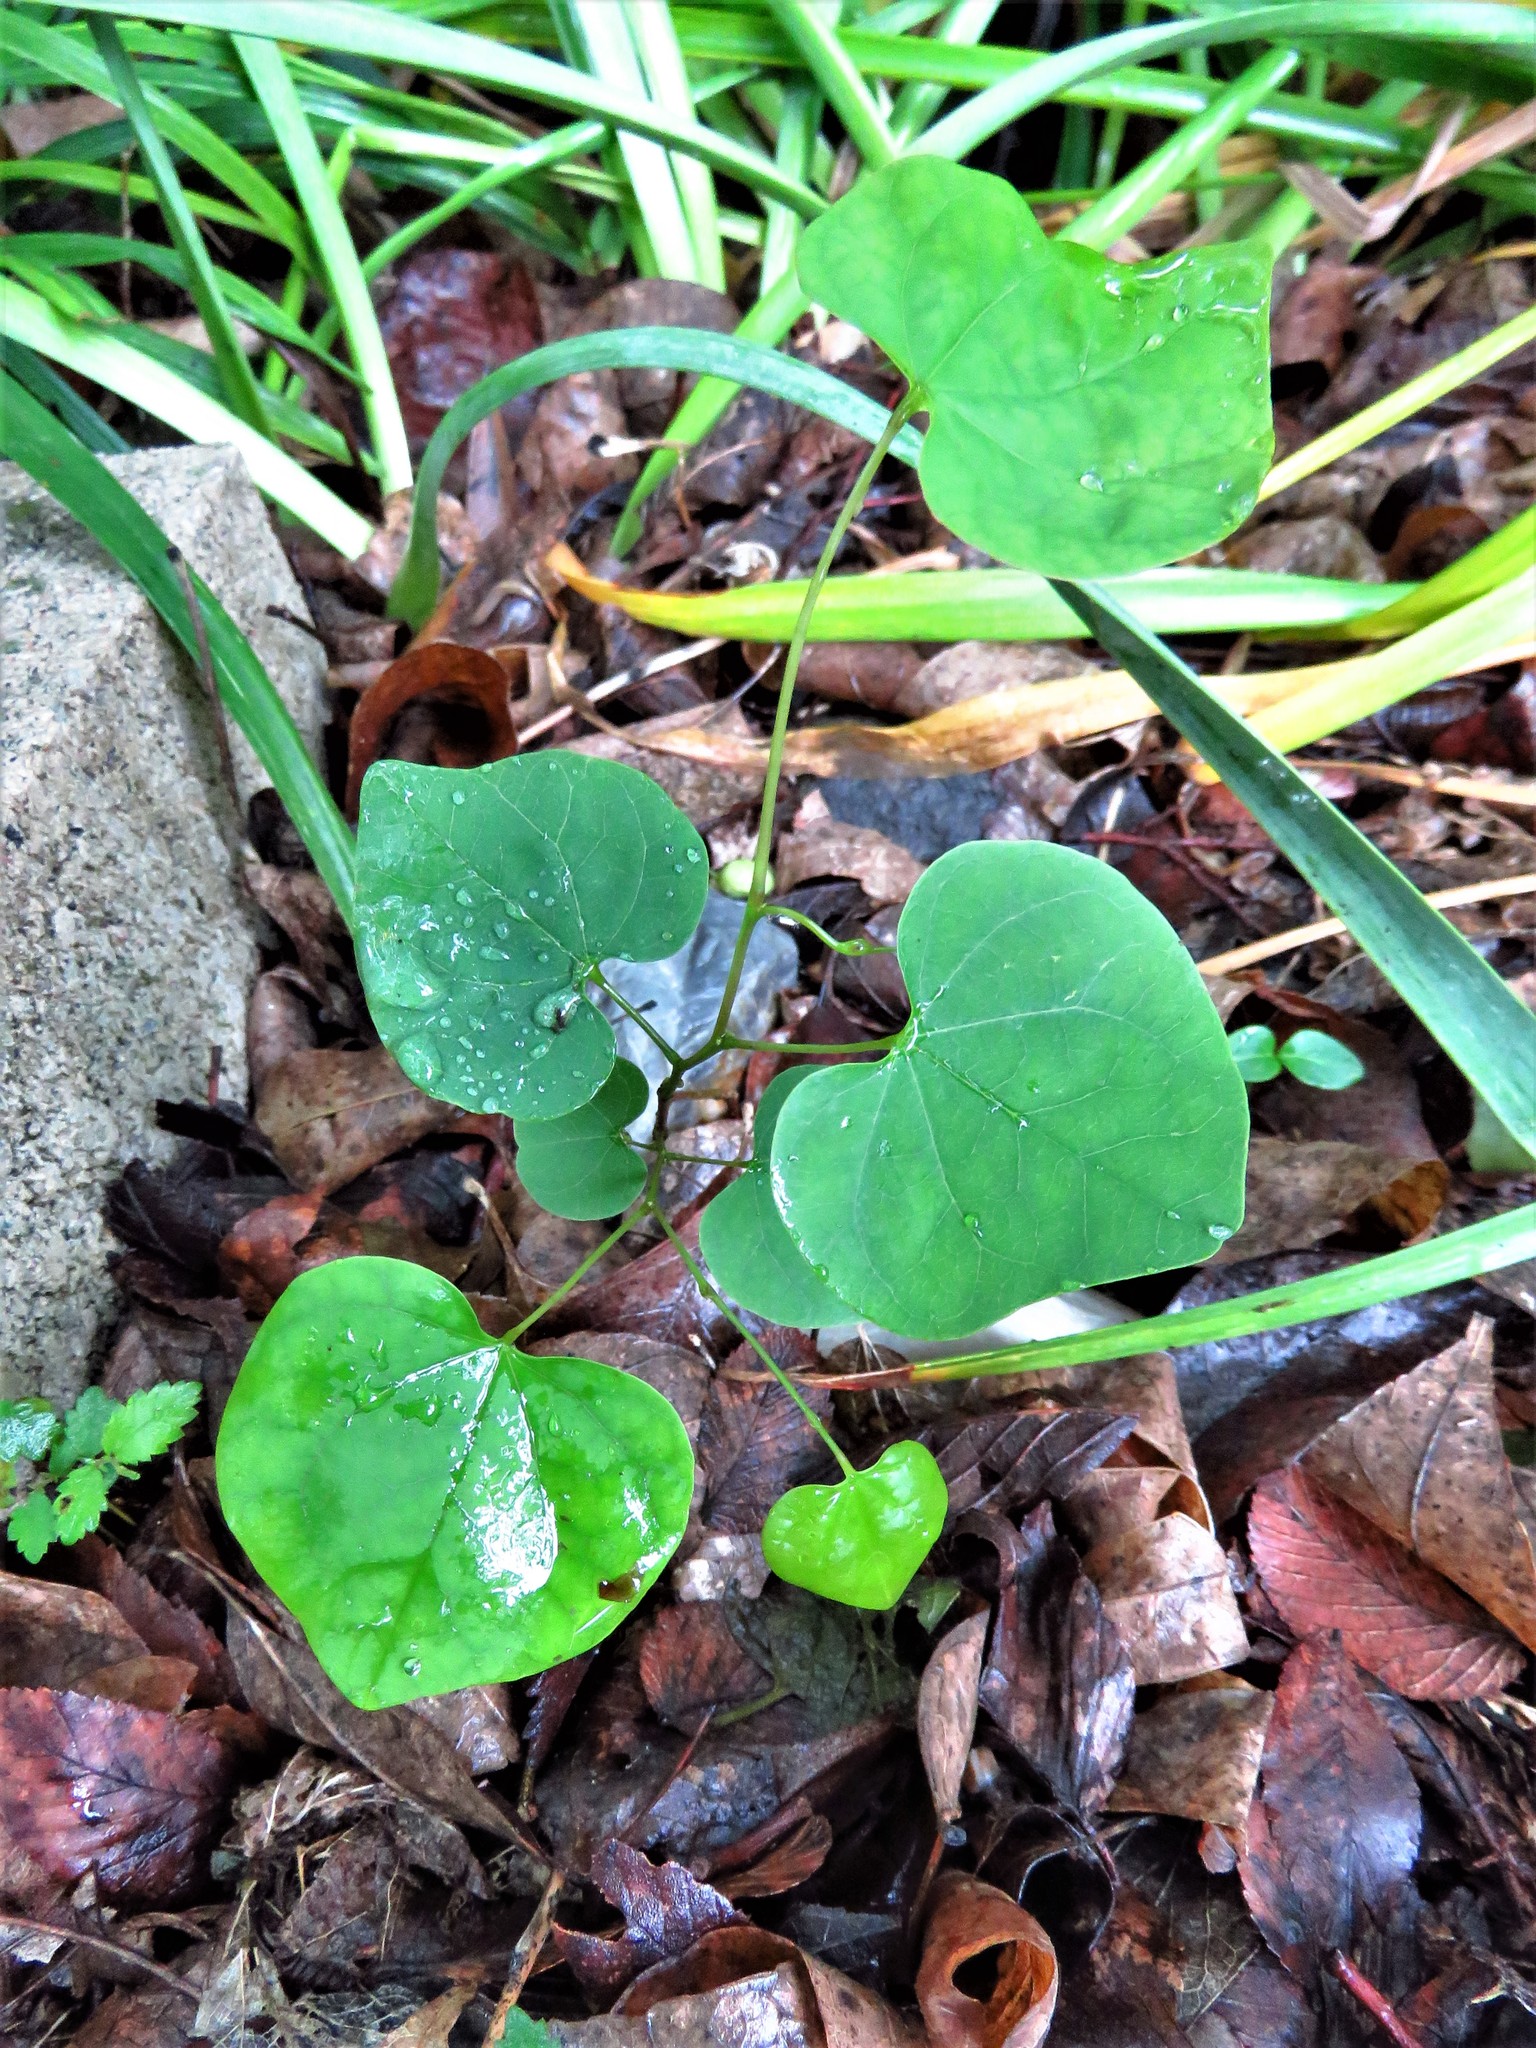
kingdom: Plantae
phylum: Tracheophyta
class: Magnoliopsida
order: Fabales
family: Fabaceae
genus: Cercis
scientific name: Cercis canadensis
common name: Eastern redbud
